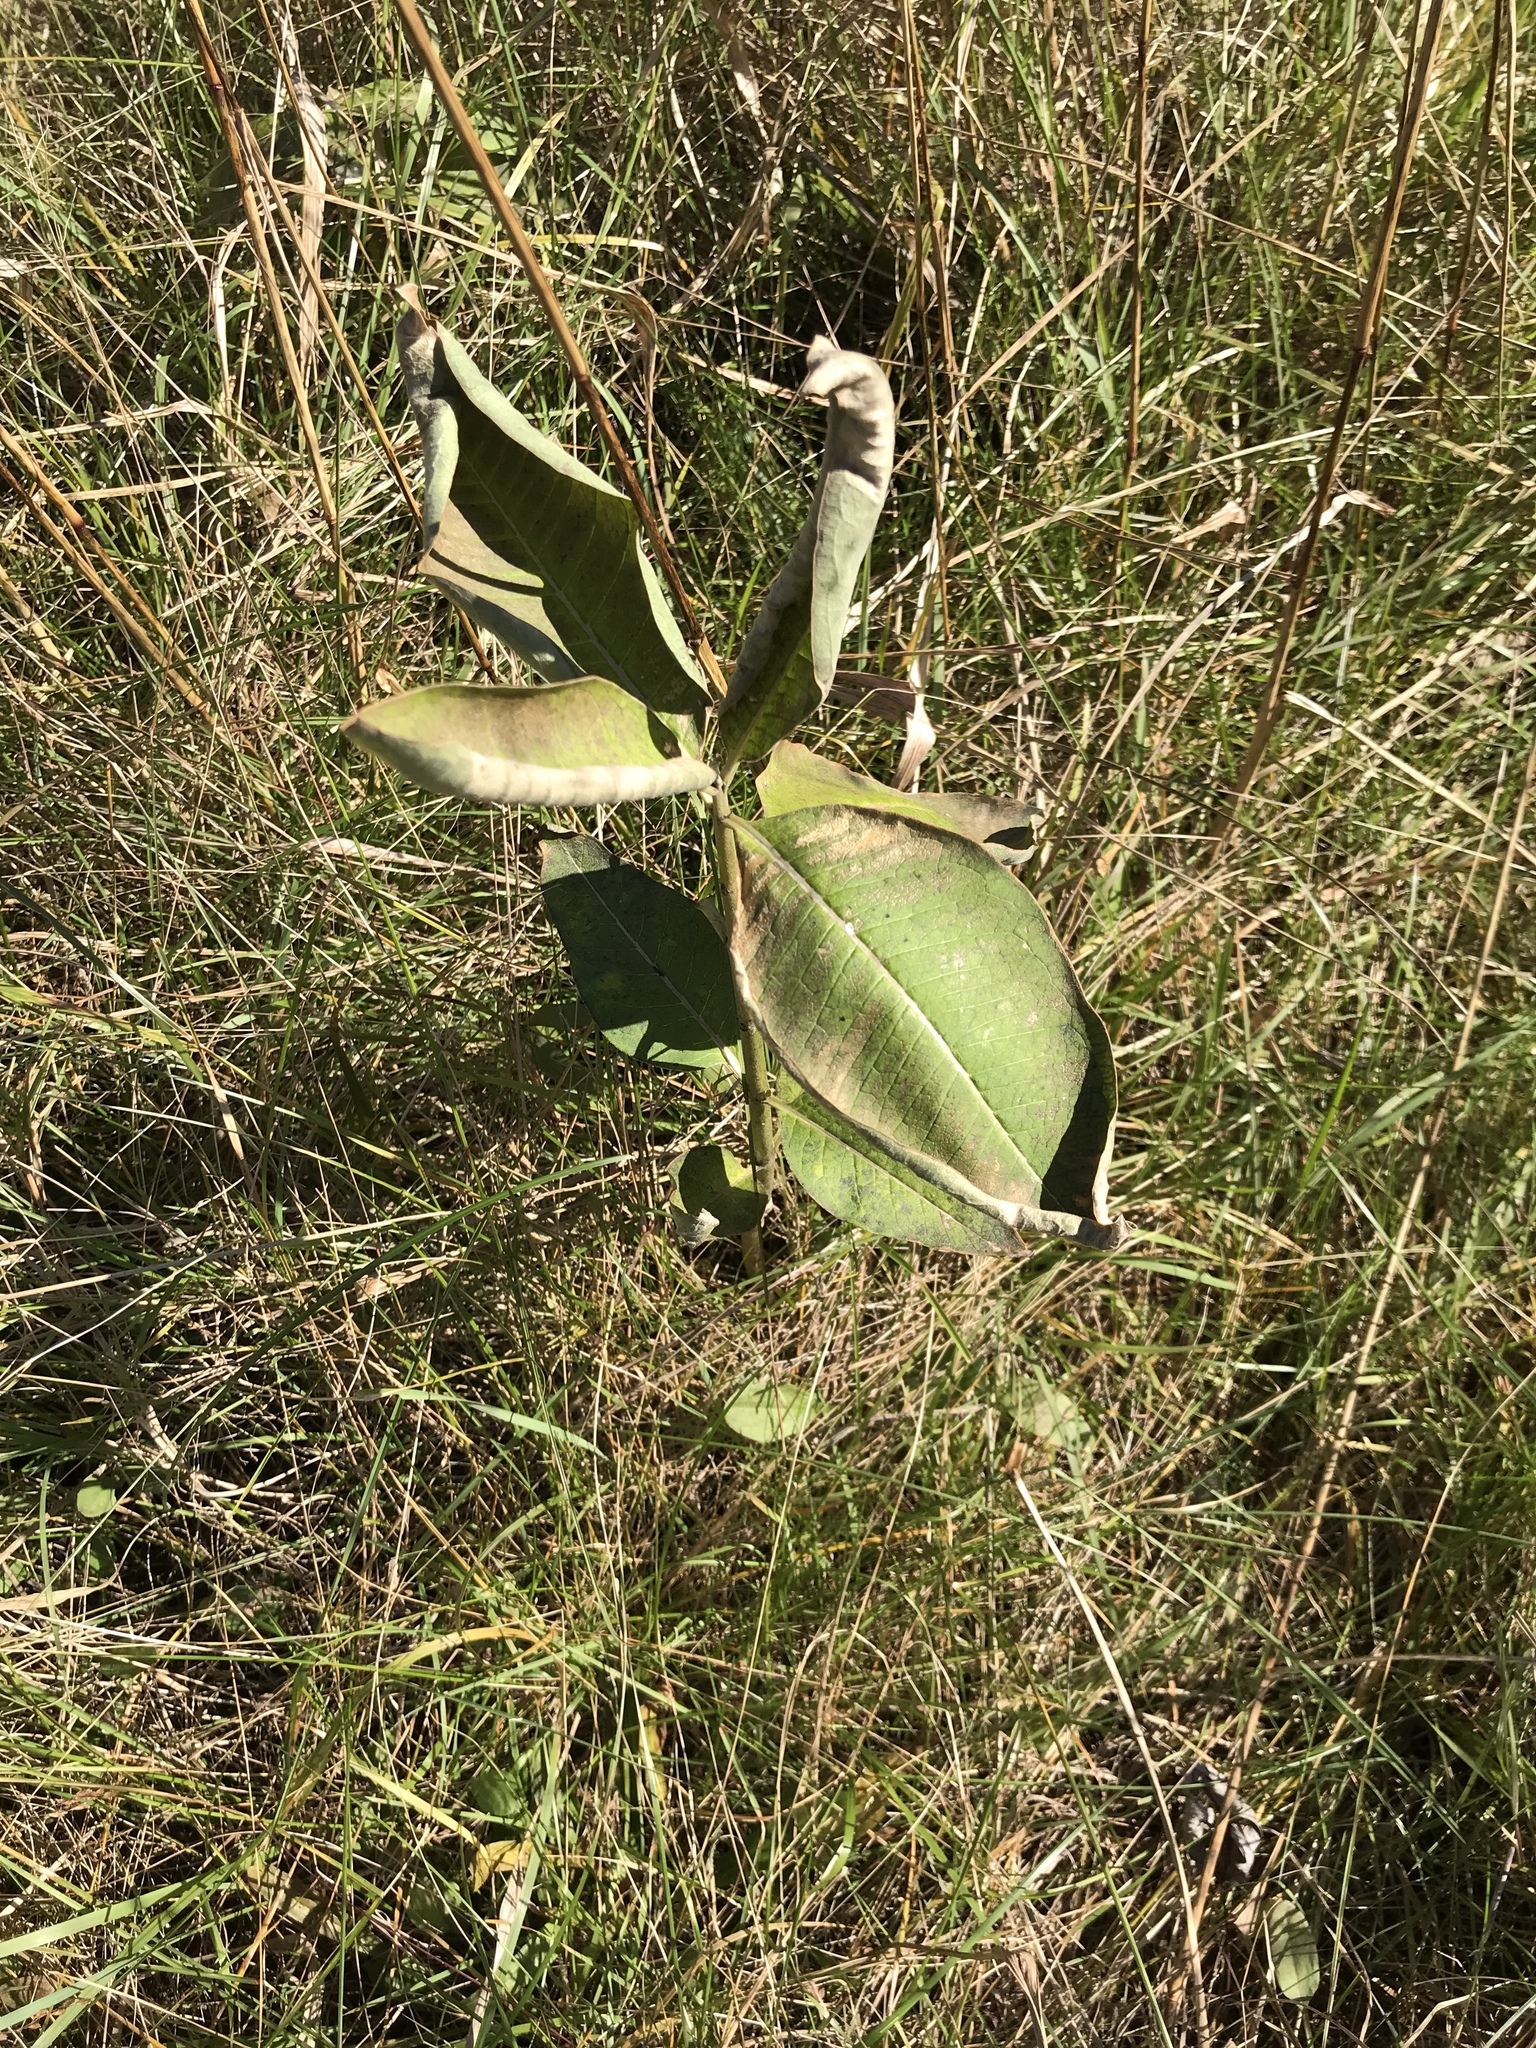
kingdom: Plantae
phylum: Tracheophyta
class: Magnoliopsida
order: Gentianales
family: Apocynaceae
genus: Asclepias
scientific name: Asclepias syriaca
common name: Common milkweed
